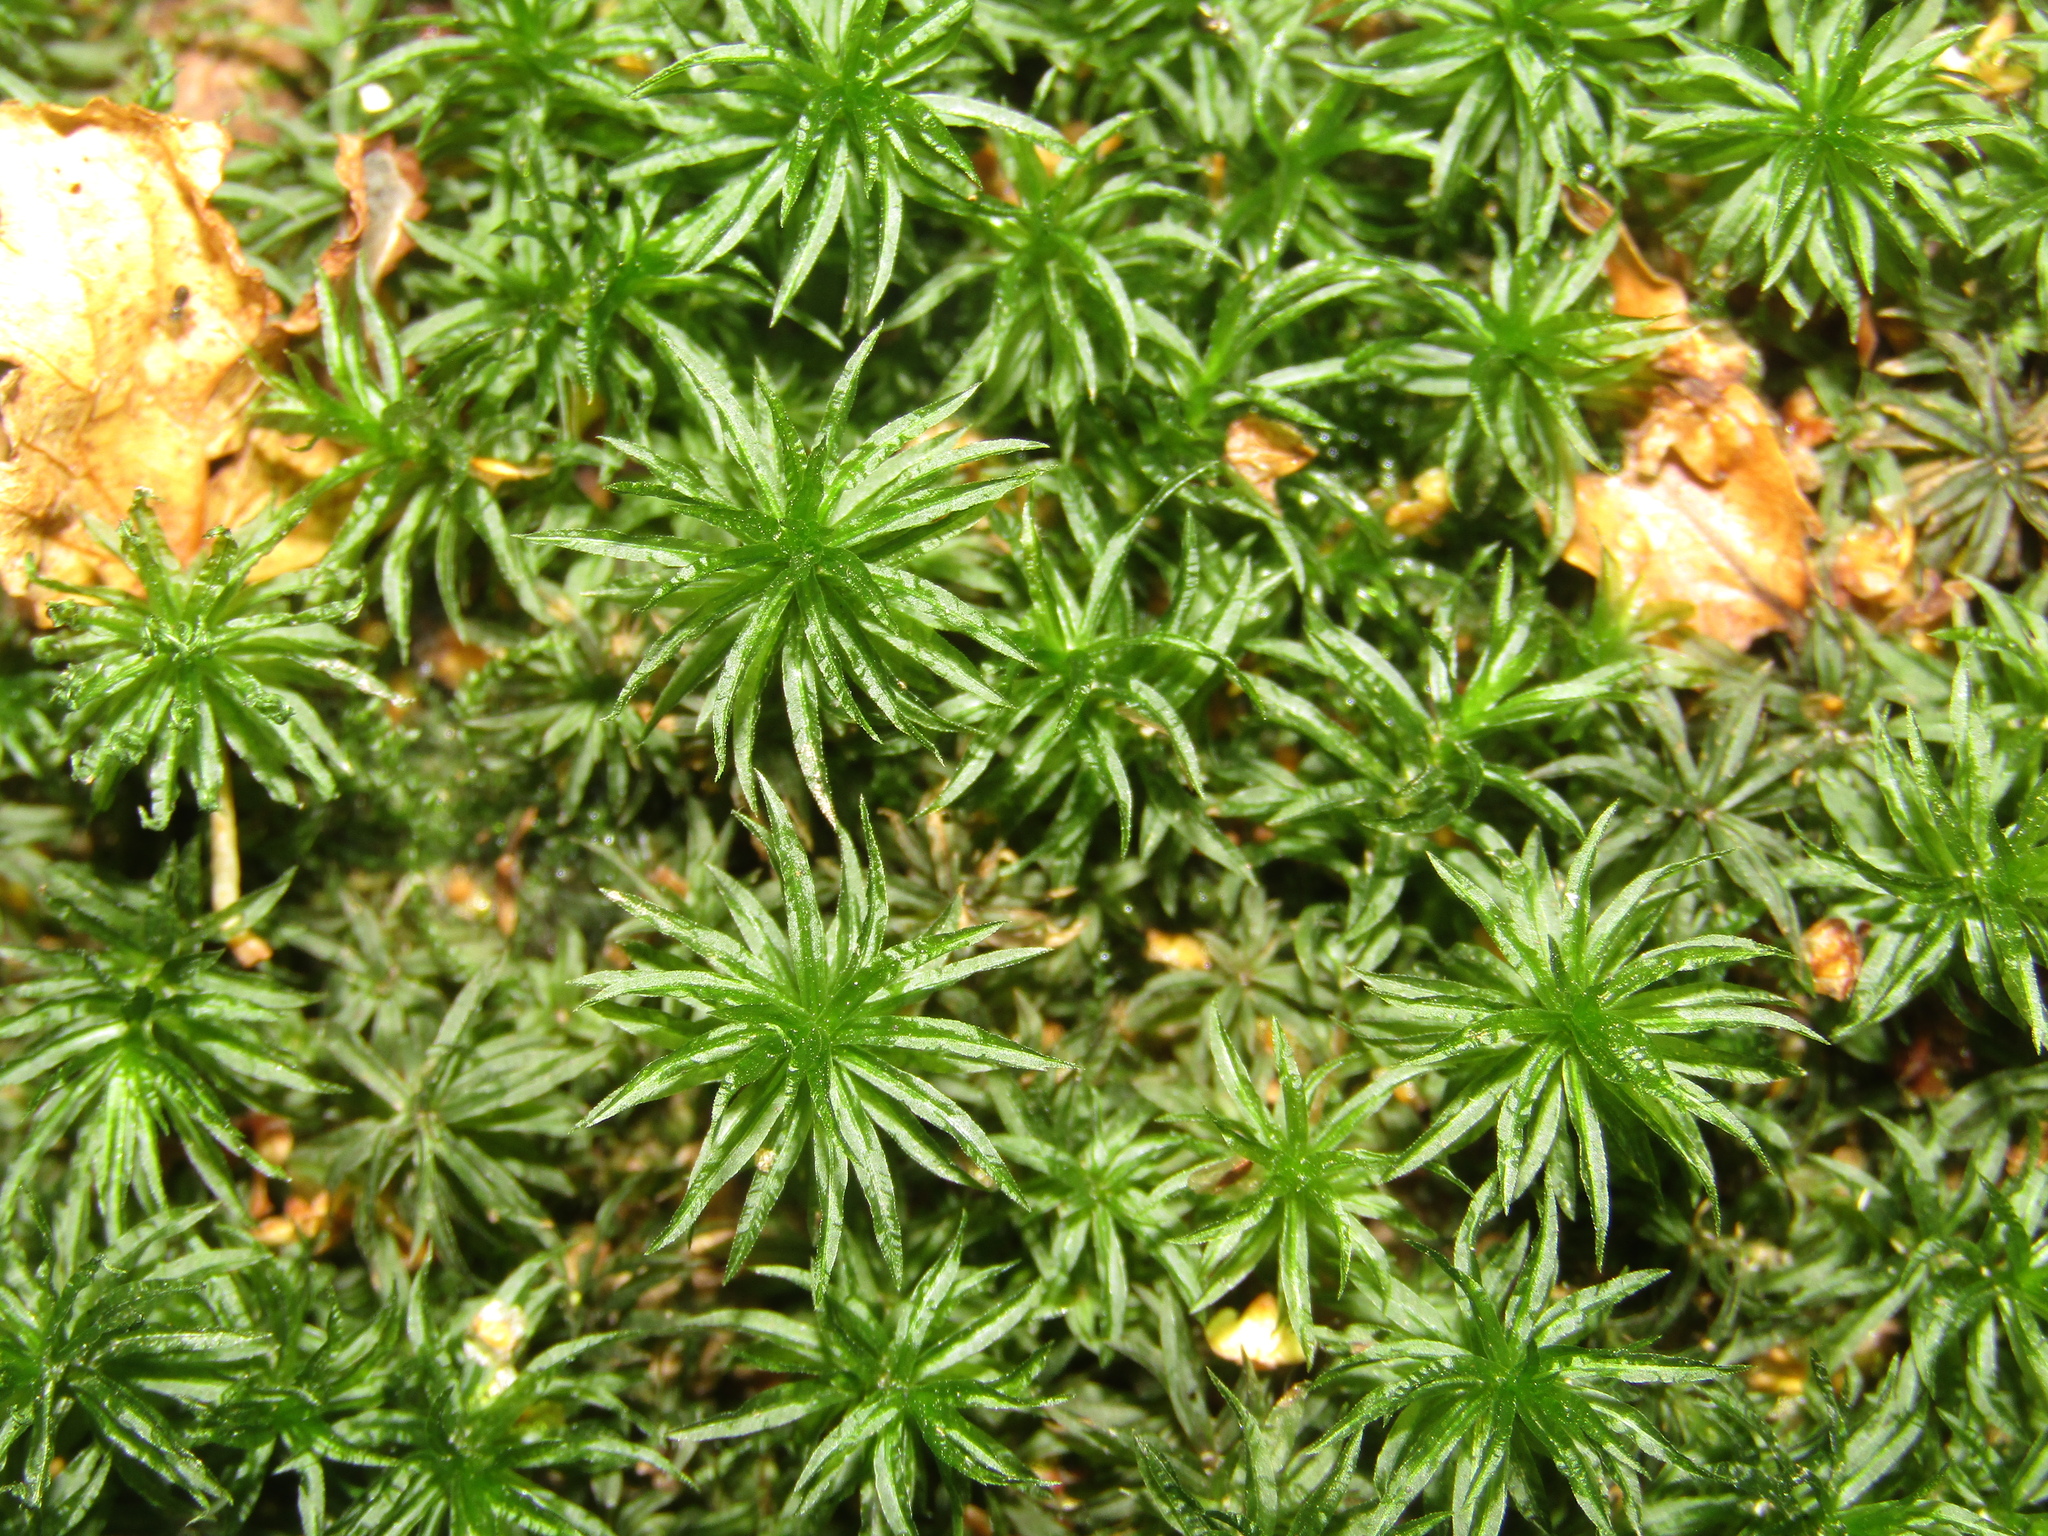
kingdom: Plantae
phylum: Bryophyta
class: Polytrichopsida
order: Polytrichales
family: Polytrichaceae
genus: Atrichum
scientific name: Atrichum undulatum
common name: Common smoothcap
